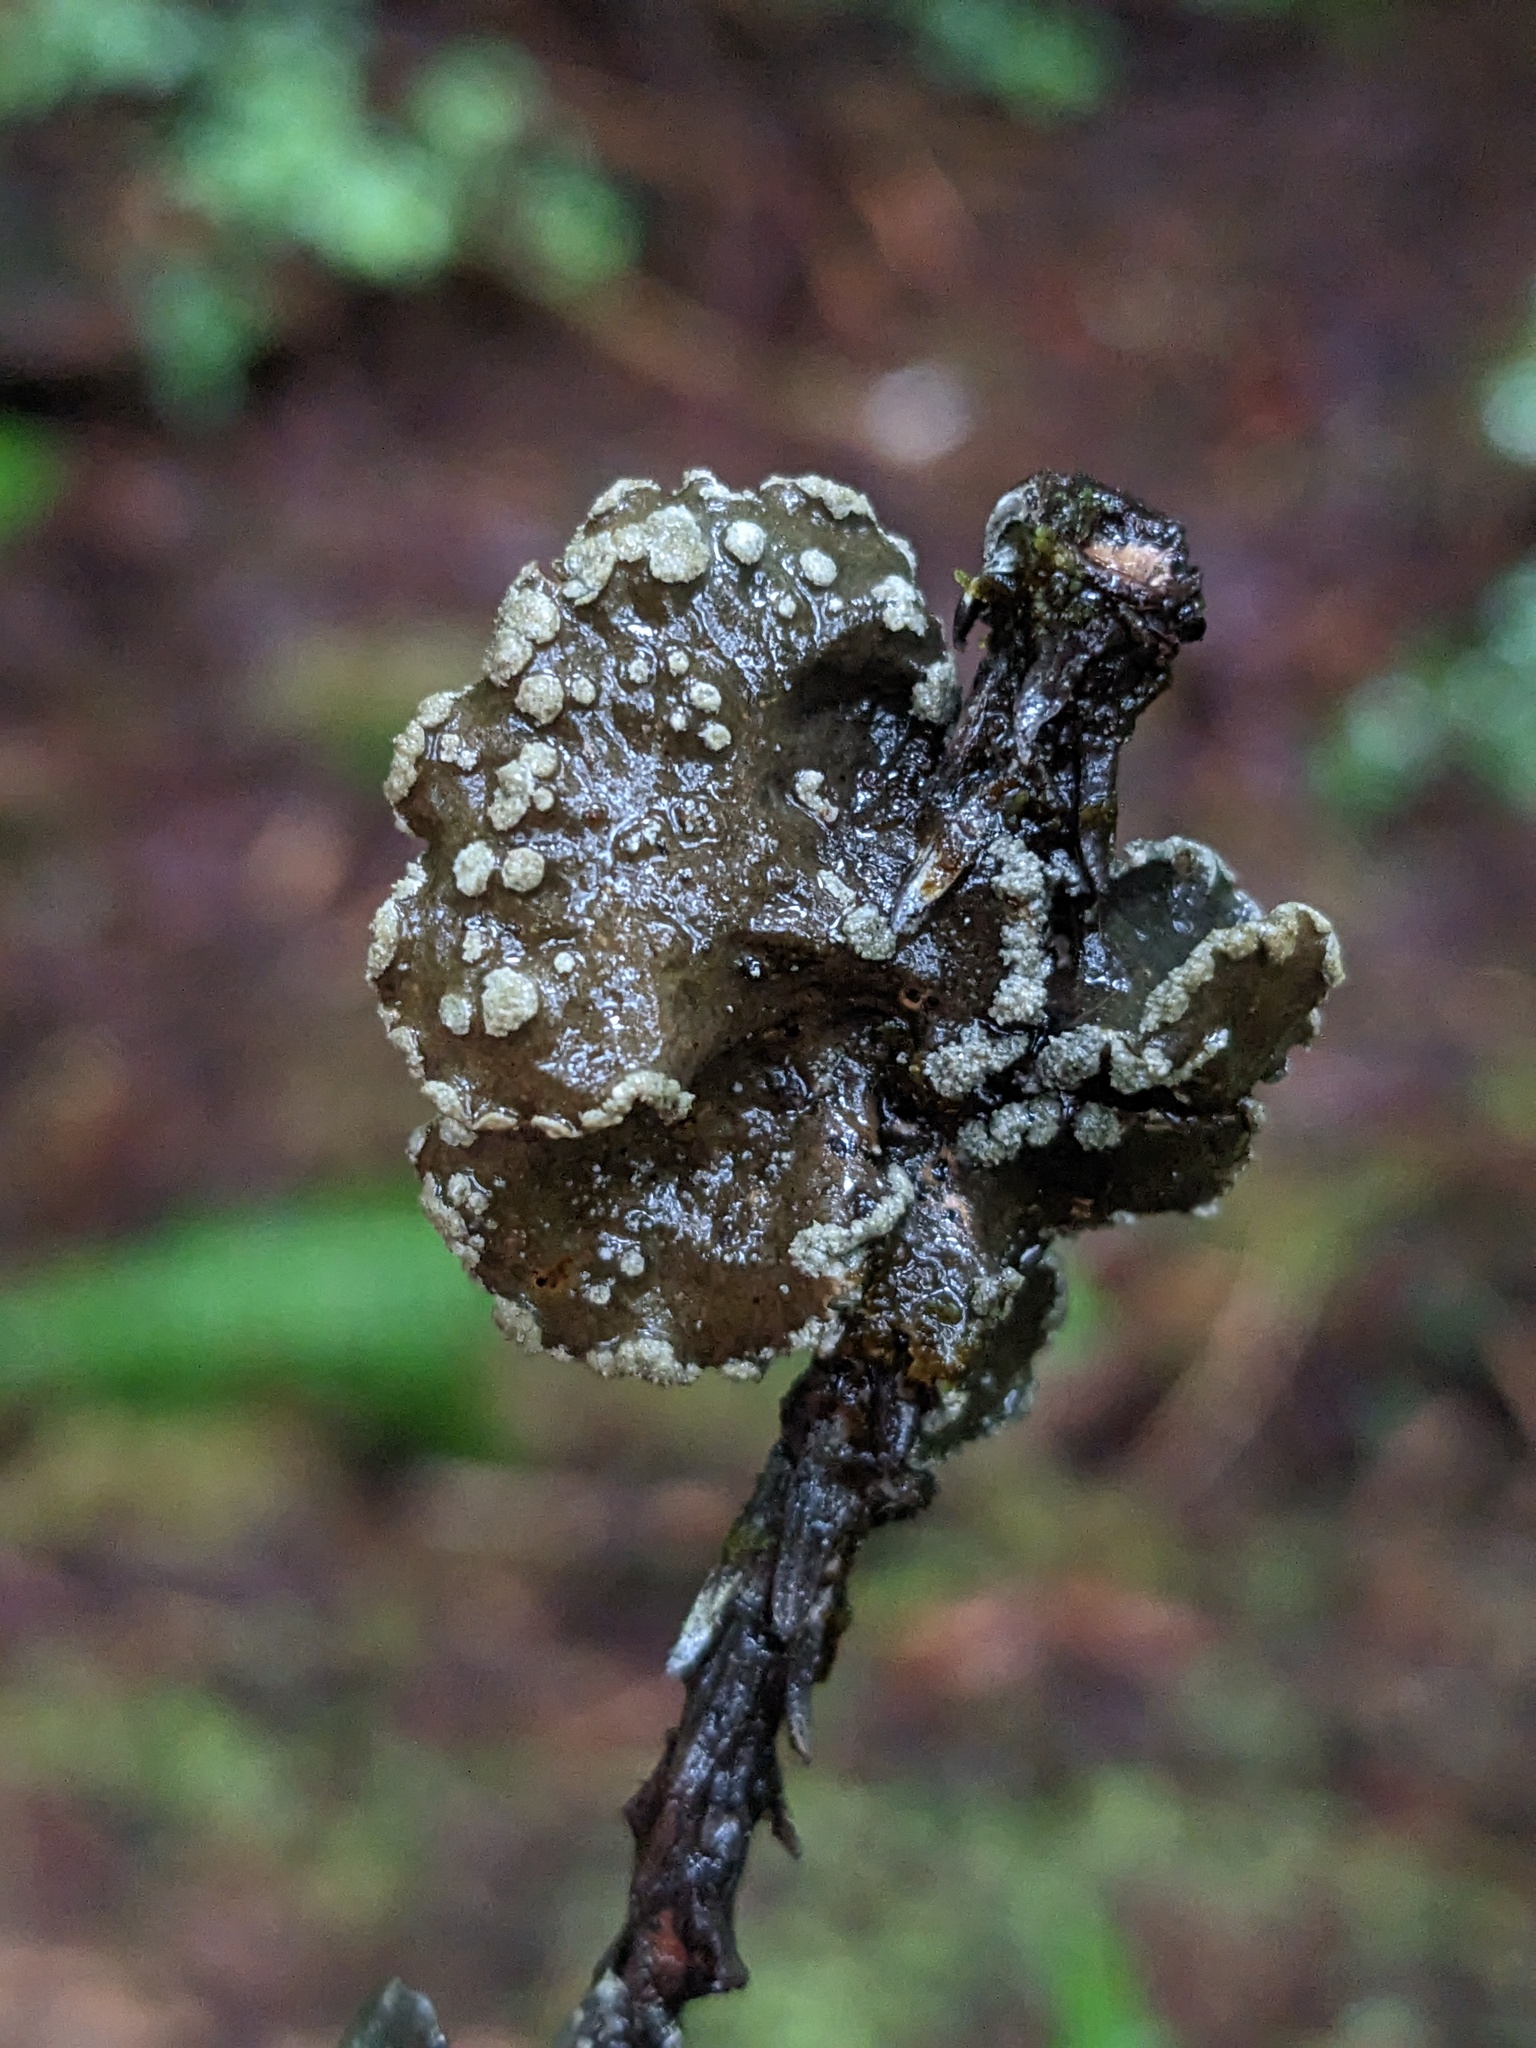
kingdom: Fungi
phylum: Ascomycota
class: Lecanoromycetes
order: Peltigerales
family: Lobariaceae
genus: Sticta
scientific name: Sticta limbata
